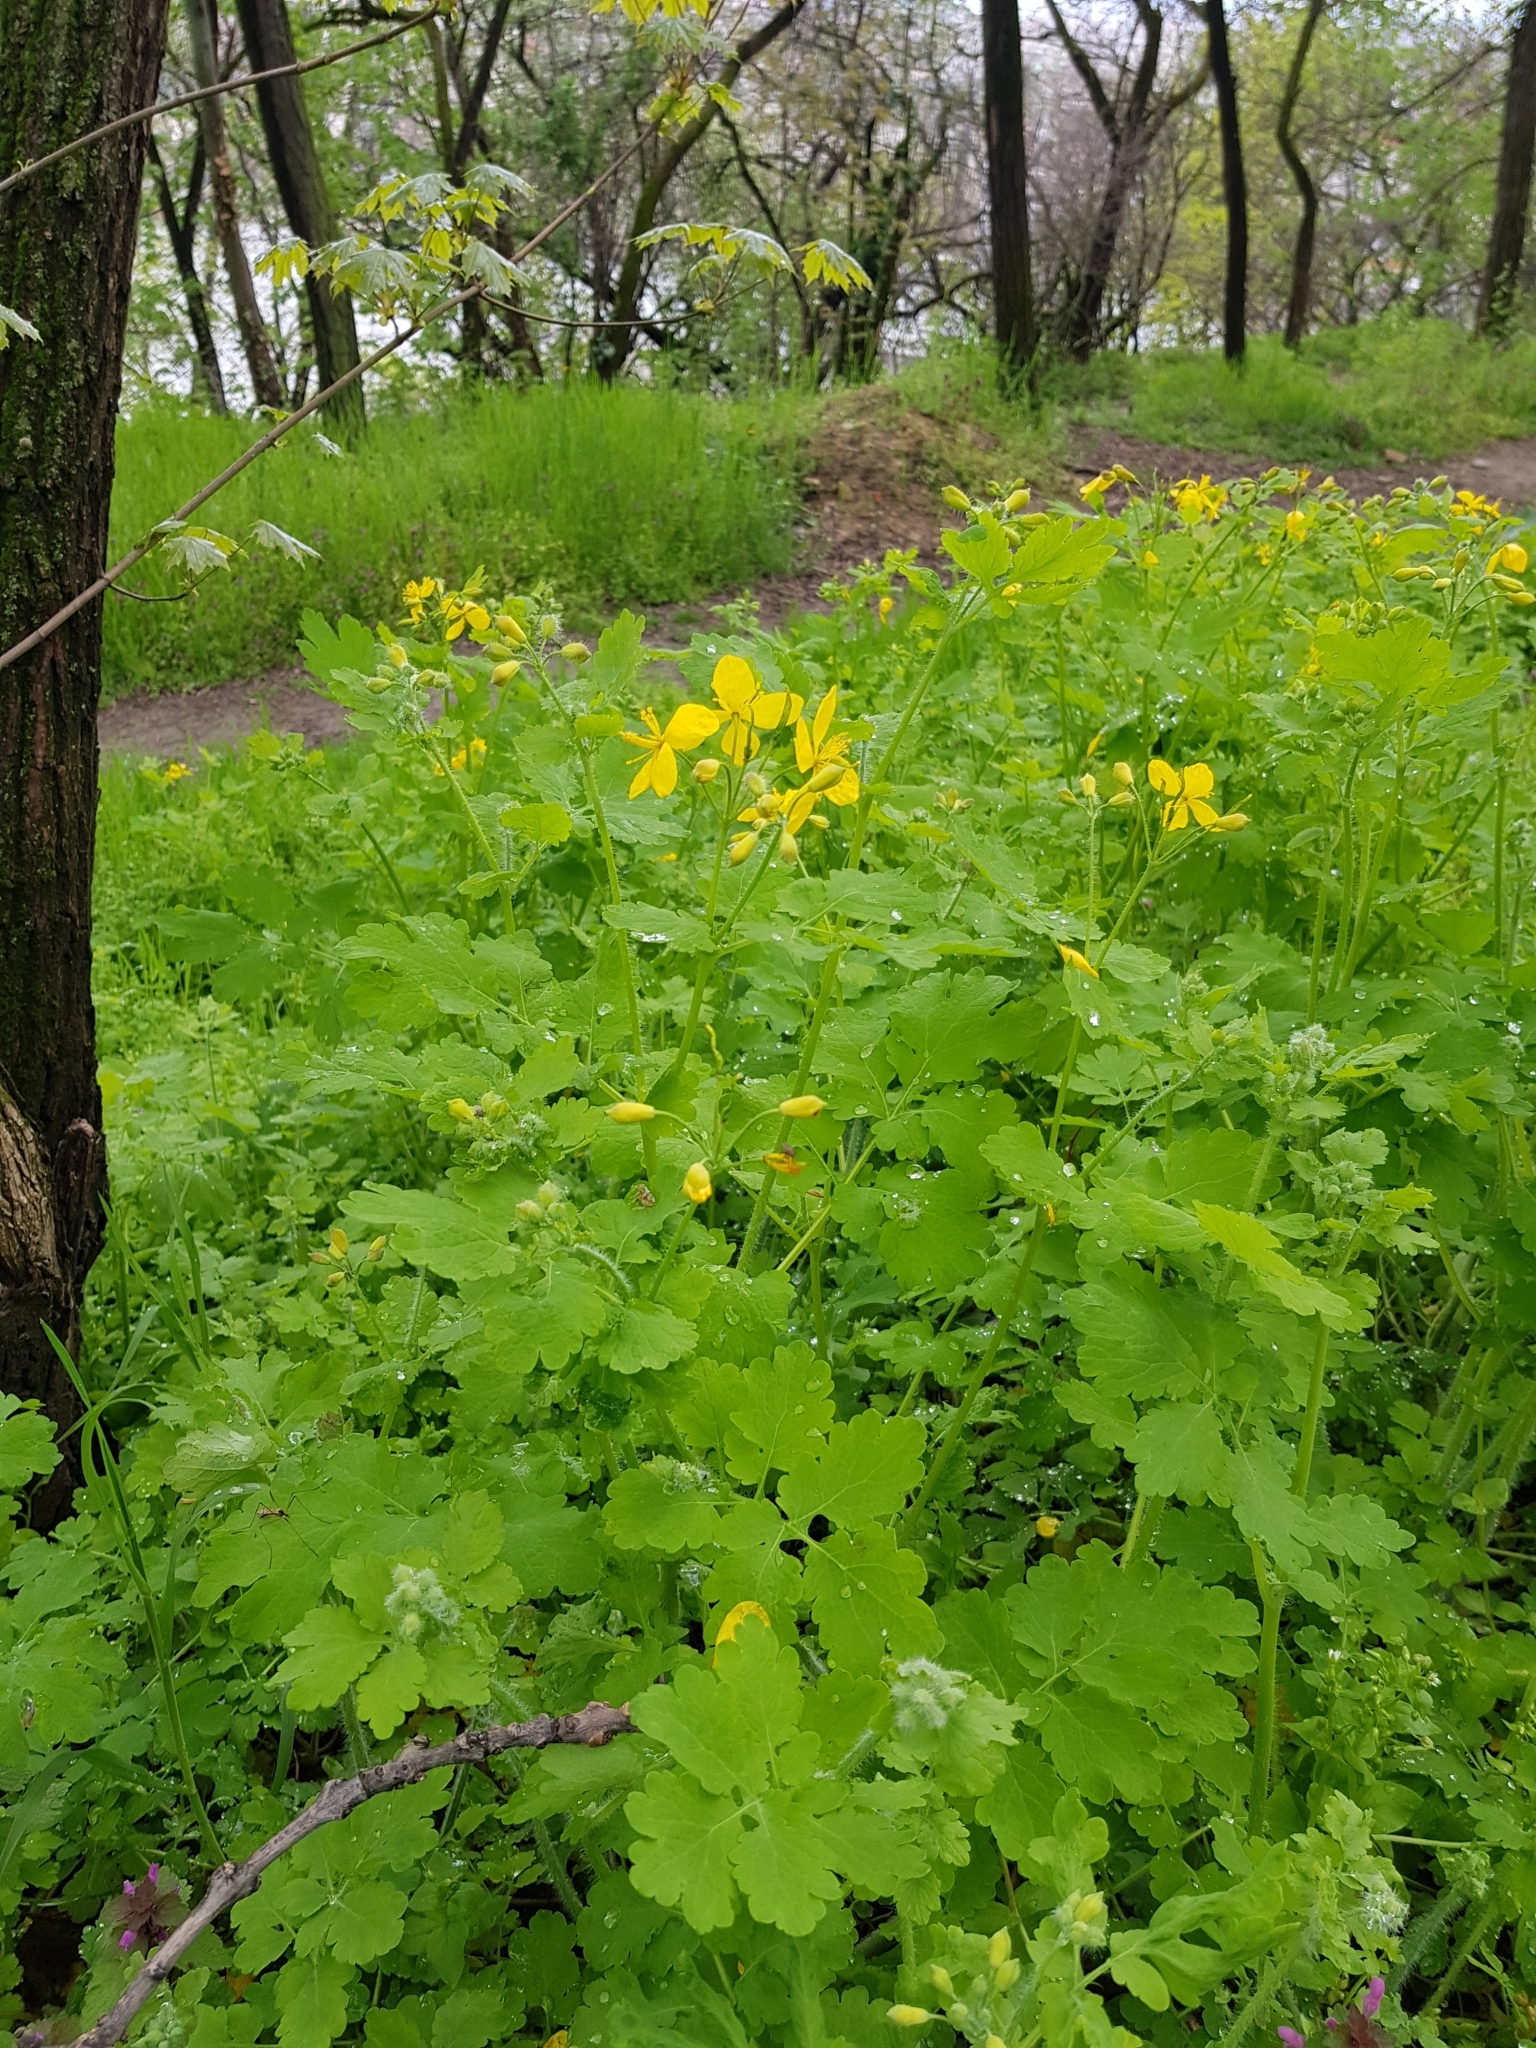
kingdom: Plantae
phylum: Tracheophyta
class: Magnoliopsida
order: Ranunculales
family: Papaveraceae
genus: Chelidonium
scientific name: Chelidonium majus
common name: Greater celandine
